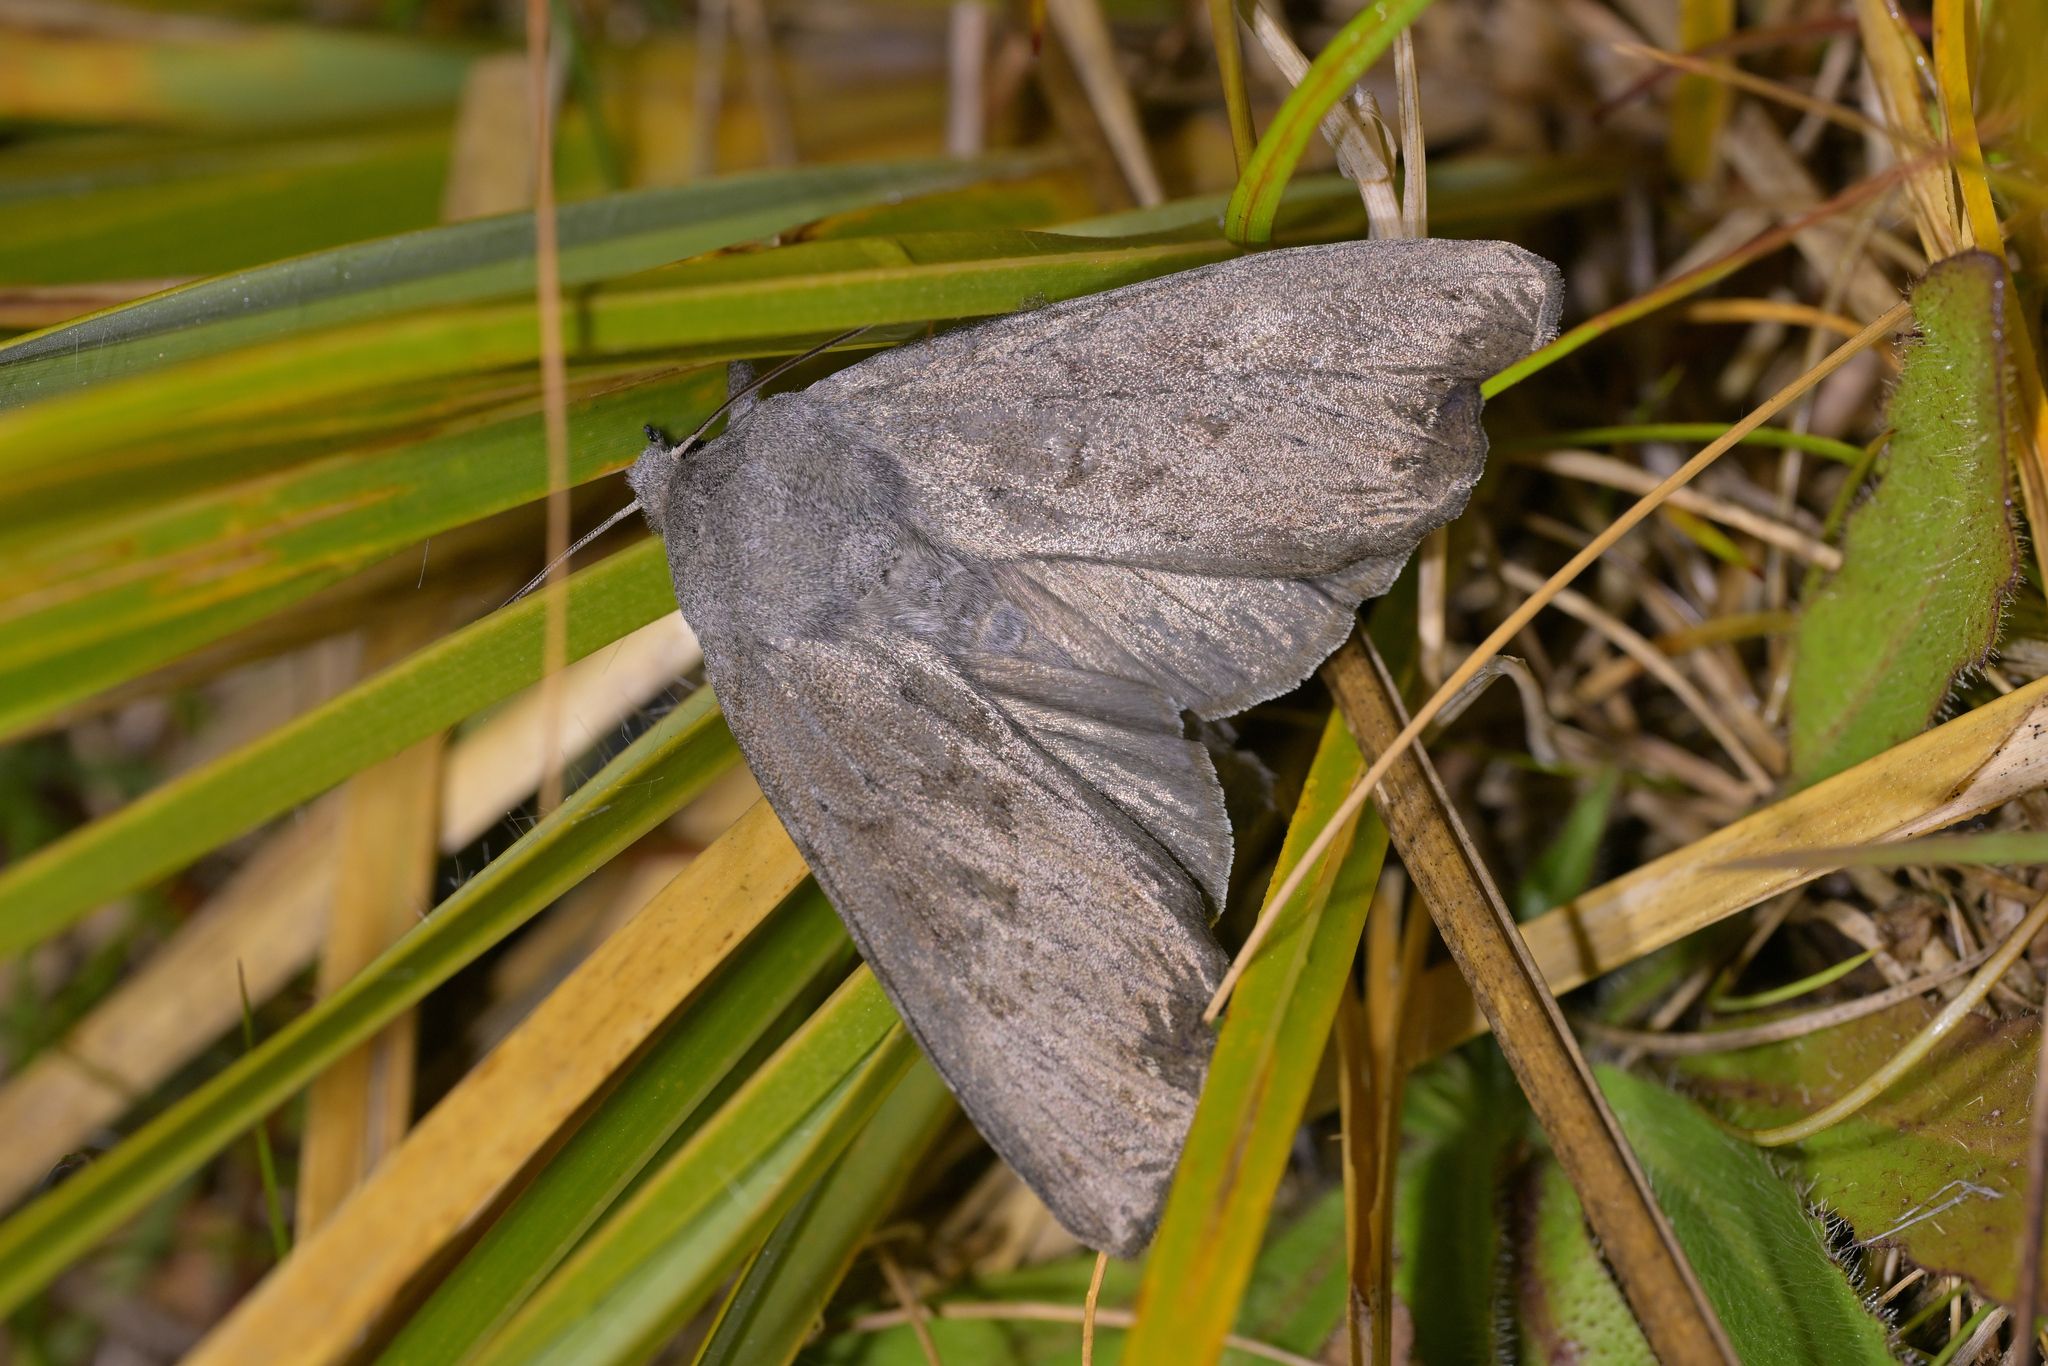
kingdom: Animalia
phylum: Arthropoda
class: Insecta
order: Lepidoptera
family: Noctuidae
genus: Ichneutica
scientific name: Ichneutica nullifera
